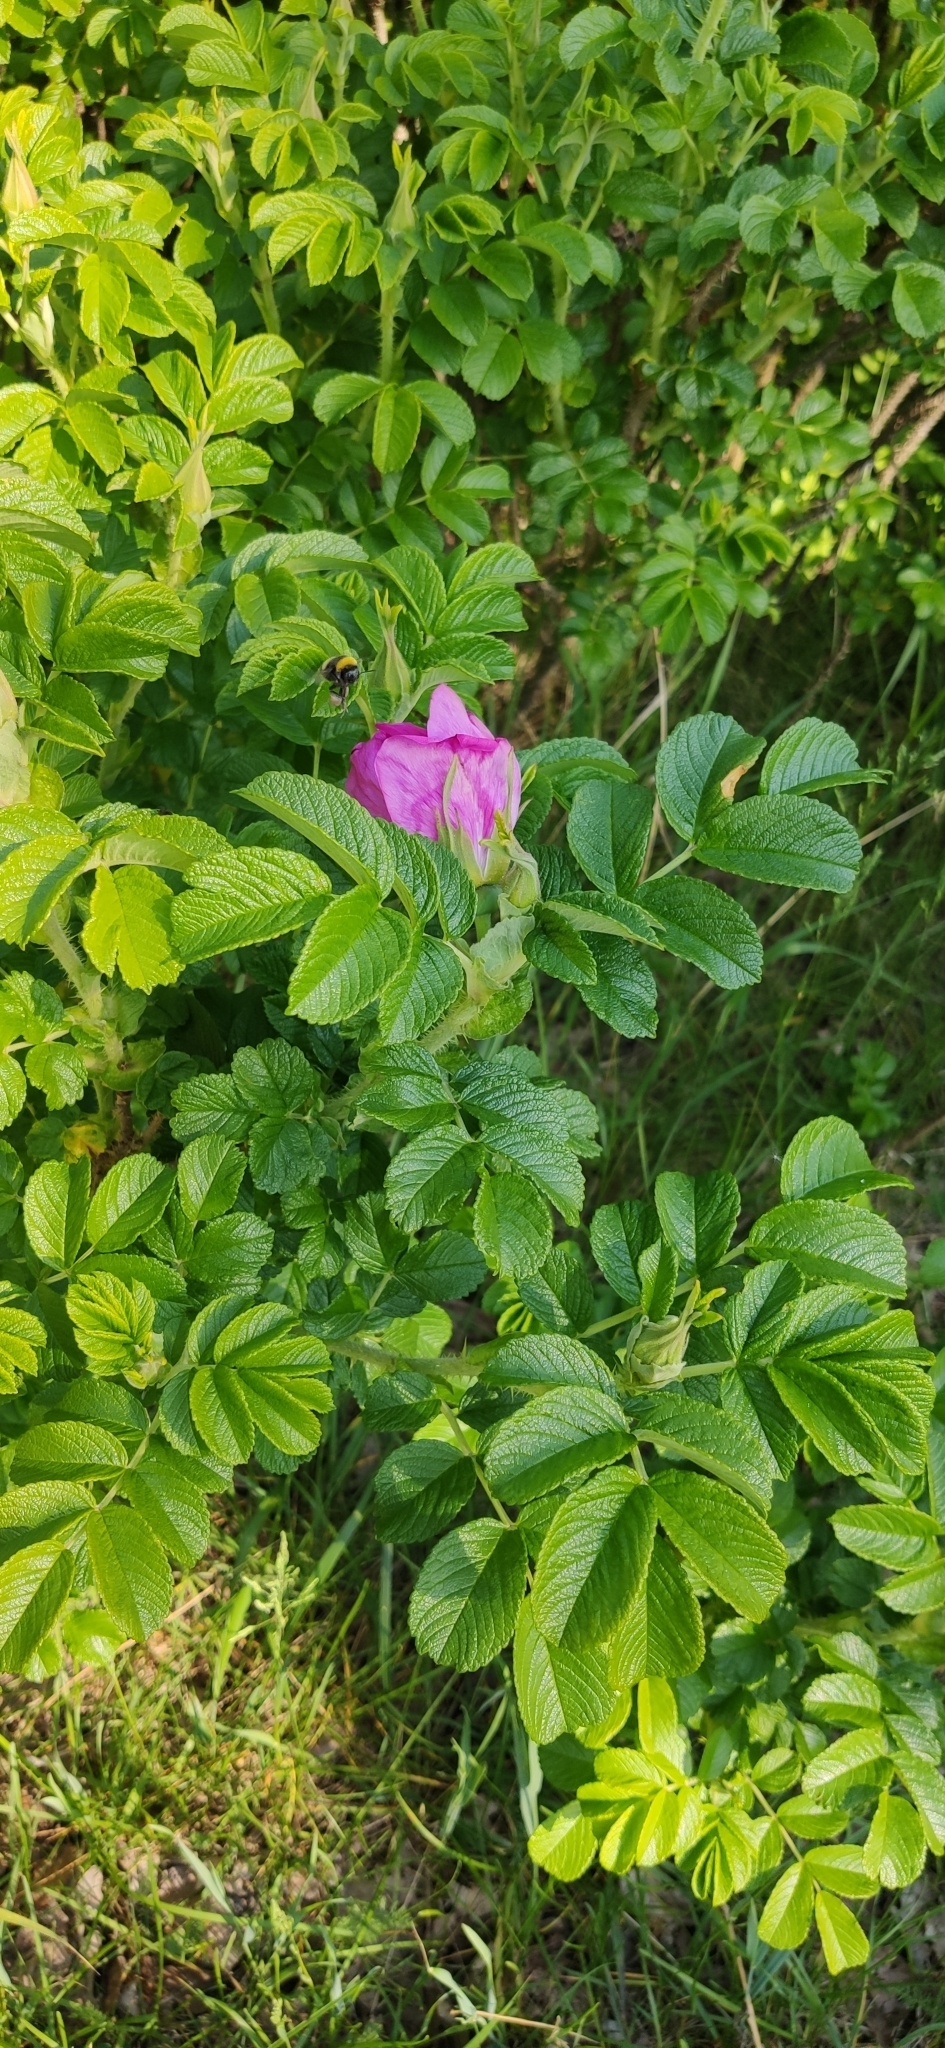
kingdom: Plantae
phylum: Tracheophyta
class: Magnoliopsida
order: Rosales
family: Rosaceae
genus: Rosa
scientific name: Rosa rugosa
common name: Japanese rose
